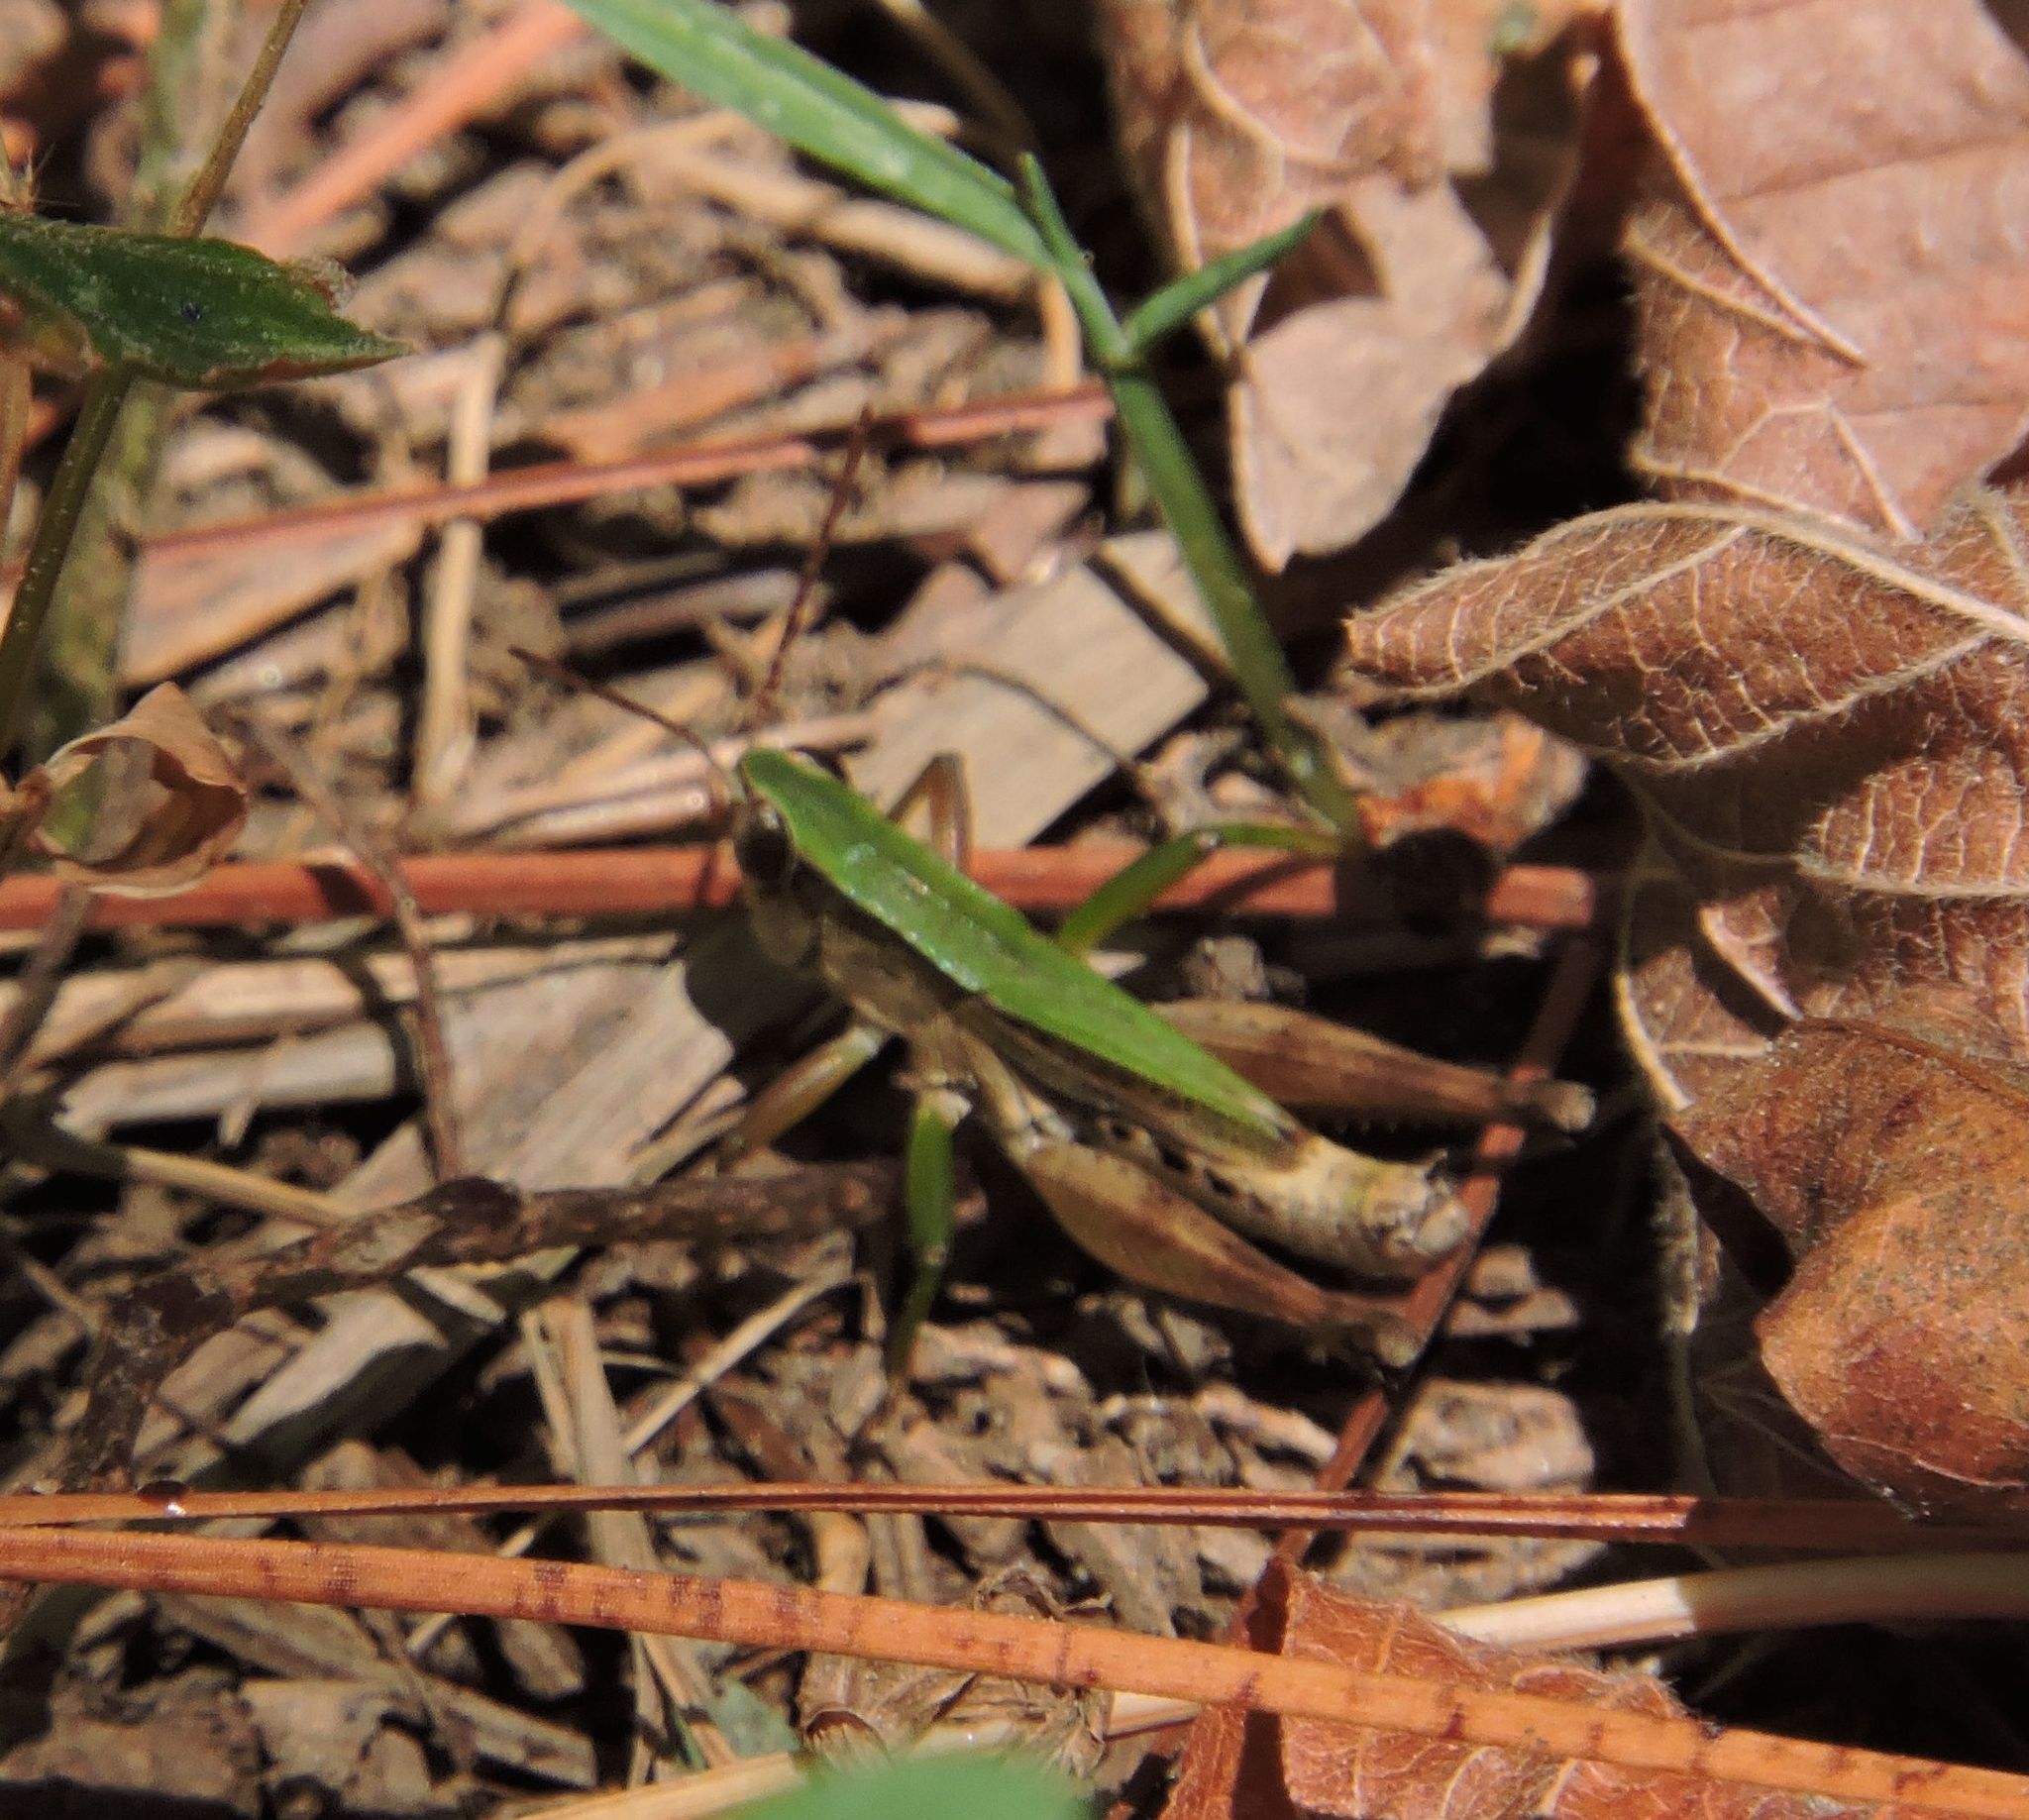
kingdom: Animalia
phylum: Arthropoda
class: Insecta
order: Orthoptera
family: Acrididae
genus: Dichromorpha
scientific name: Dichromorpha viridis
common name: Short-winged green grasshopper
